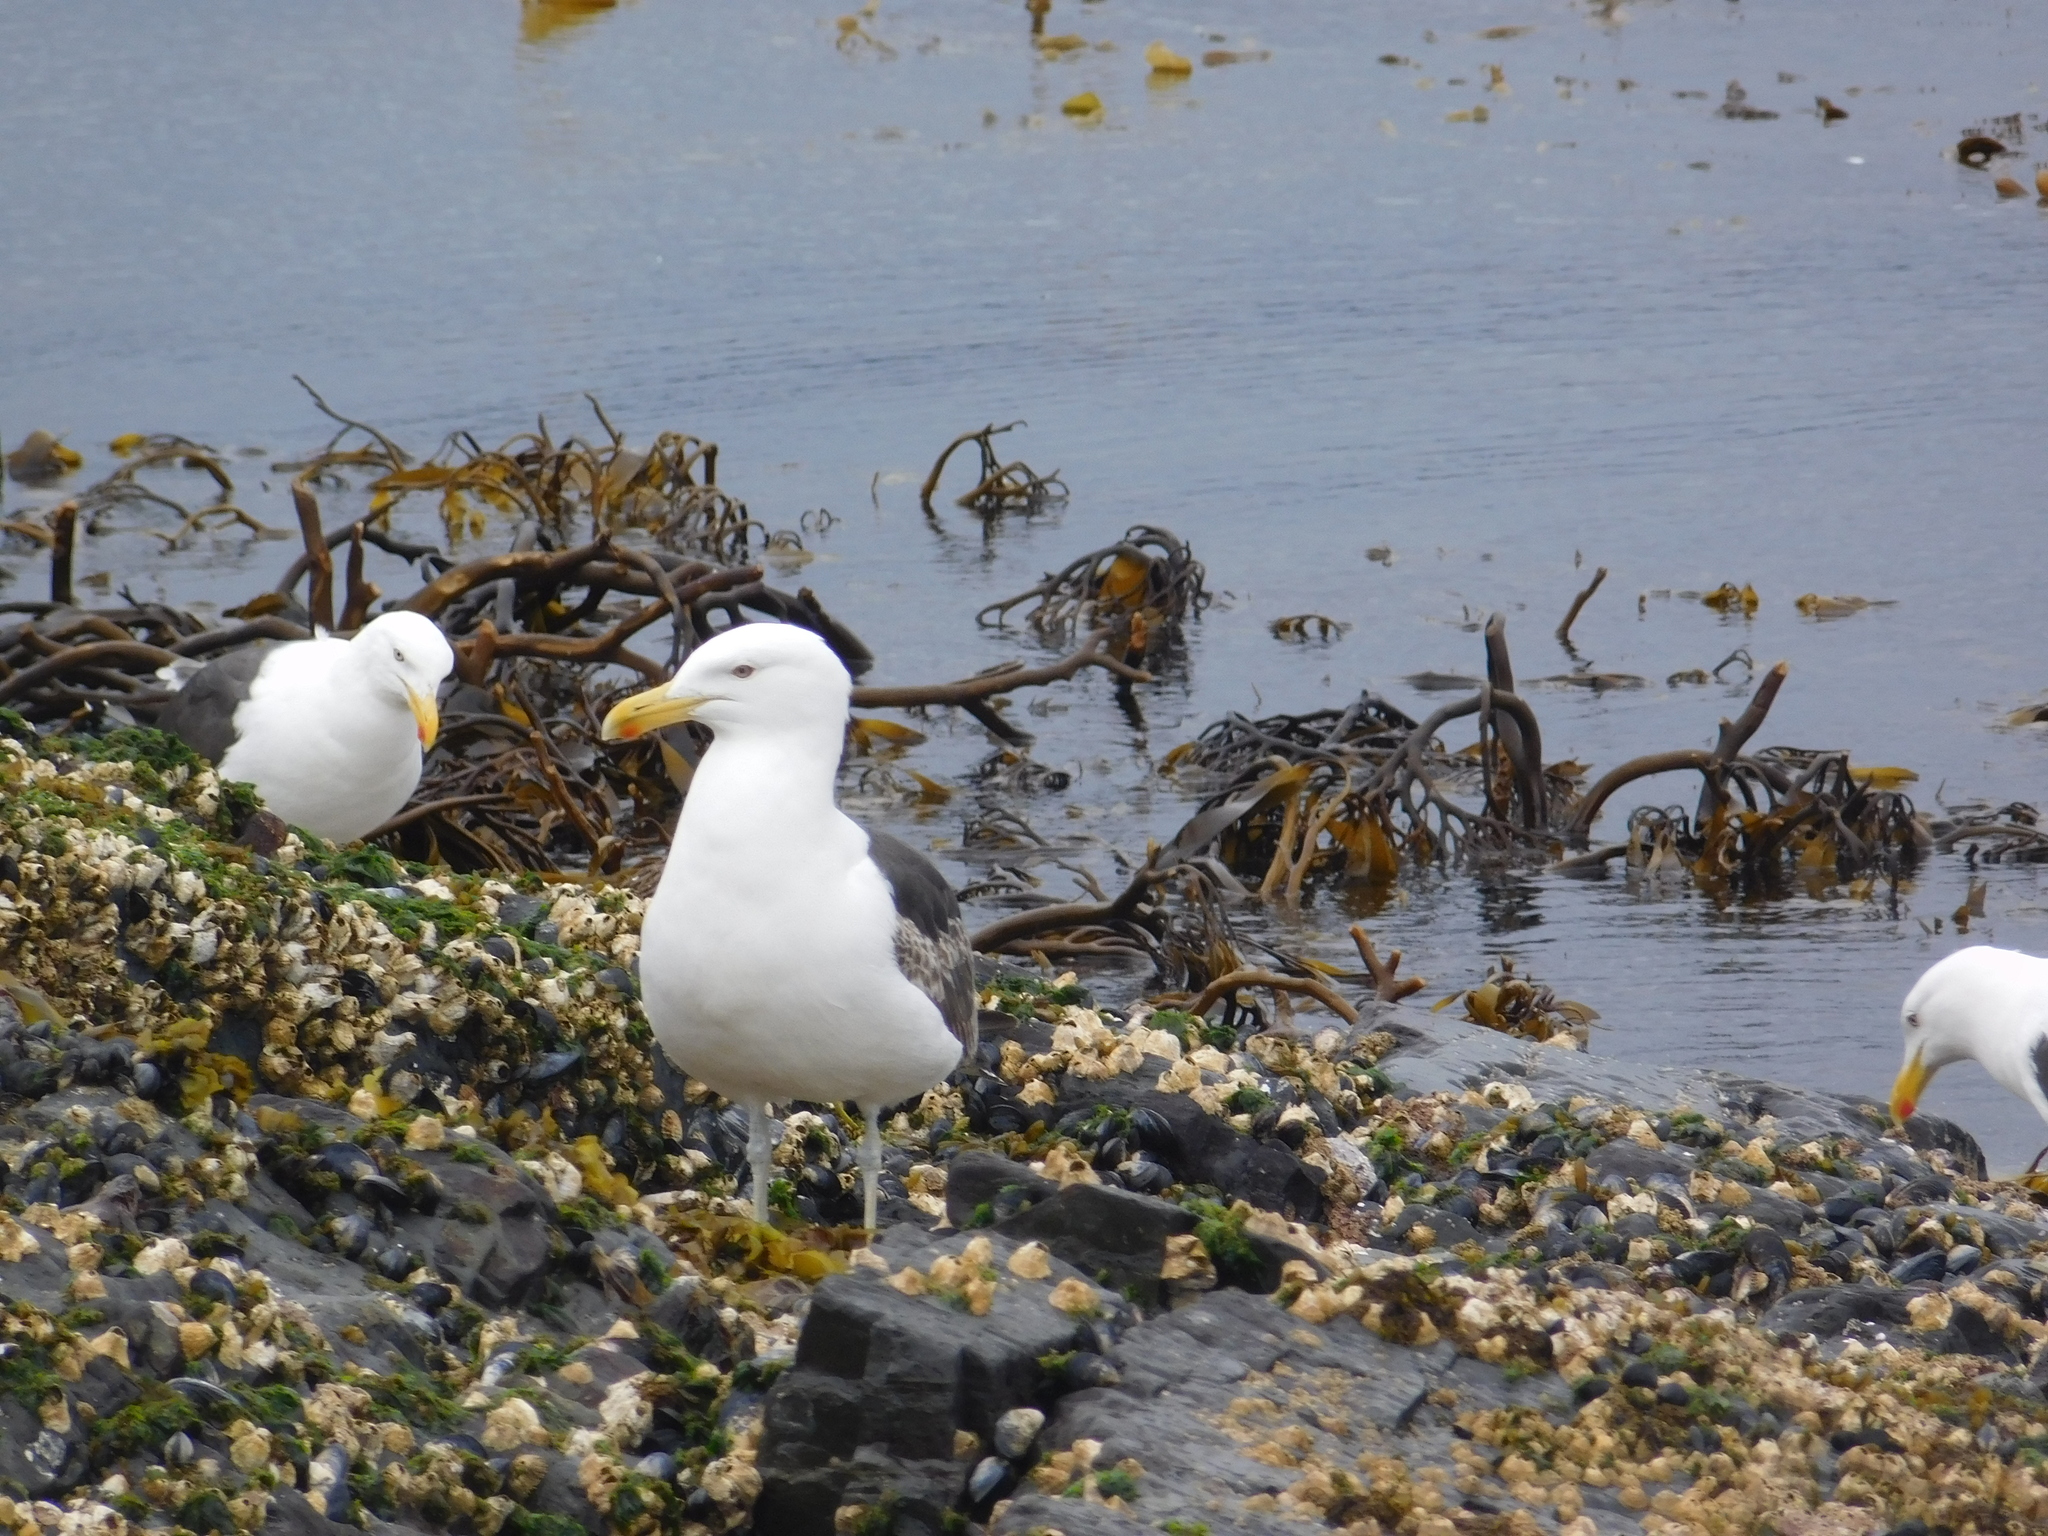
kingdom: Animalia
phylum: Chordata
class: Aves
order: Charadriiformes
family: Laridae
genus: Larus
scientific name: Larus dominicanus
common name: Kelp gull
